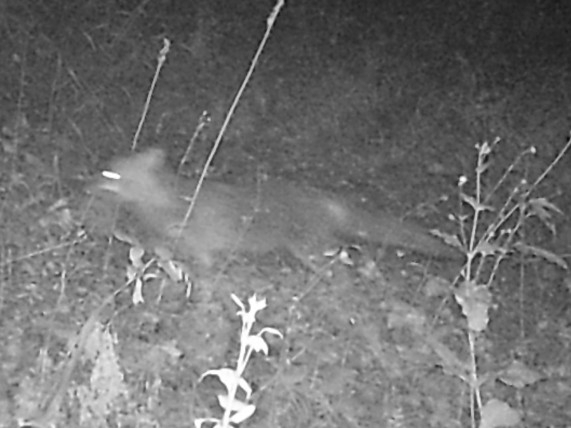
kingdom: Animalia
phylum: Chordata
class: Mammalia
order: Carnivora
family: Canidae
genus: Vulpes
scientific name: Vulpes vulpes
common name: Red fox
